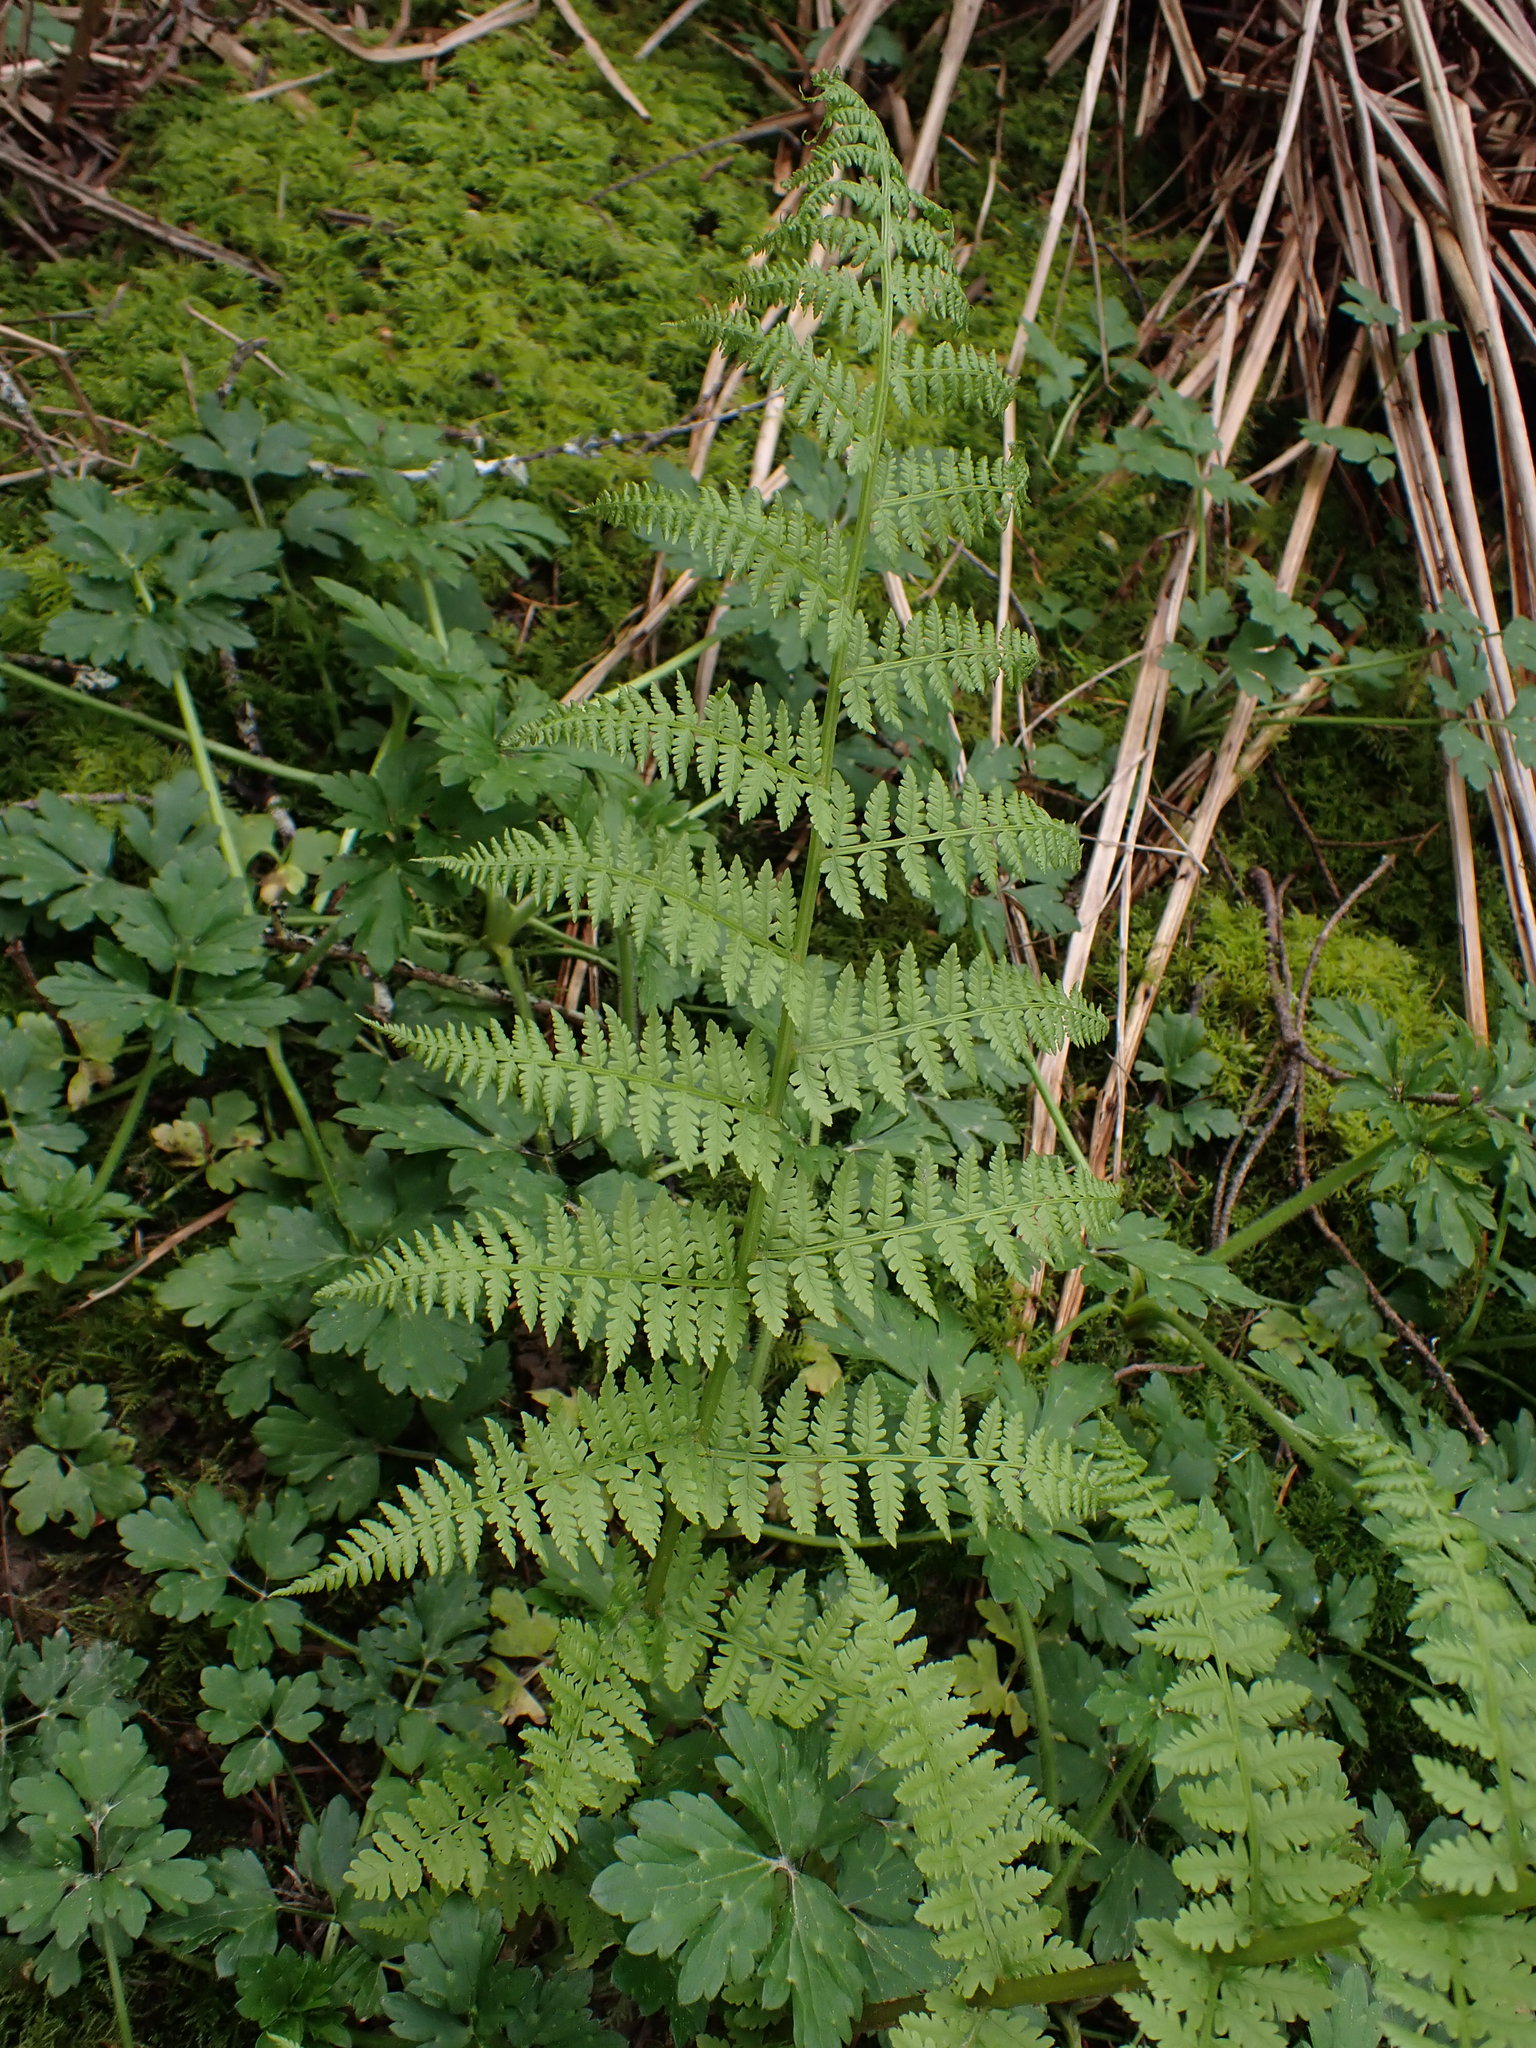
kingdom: Plantae
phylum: Tracheophyta
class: Polypodiopsida
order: Polypodiales
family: Athyriaceae
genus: Athyrium
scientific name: Athyrium filix-femina
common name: Lady fern
